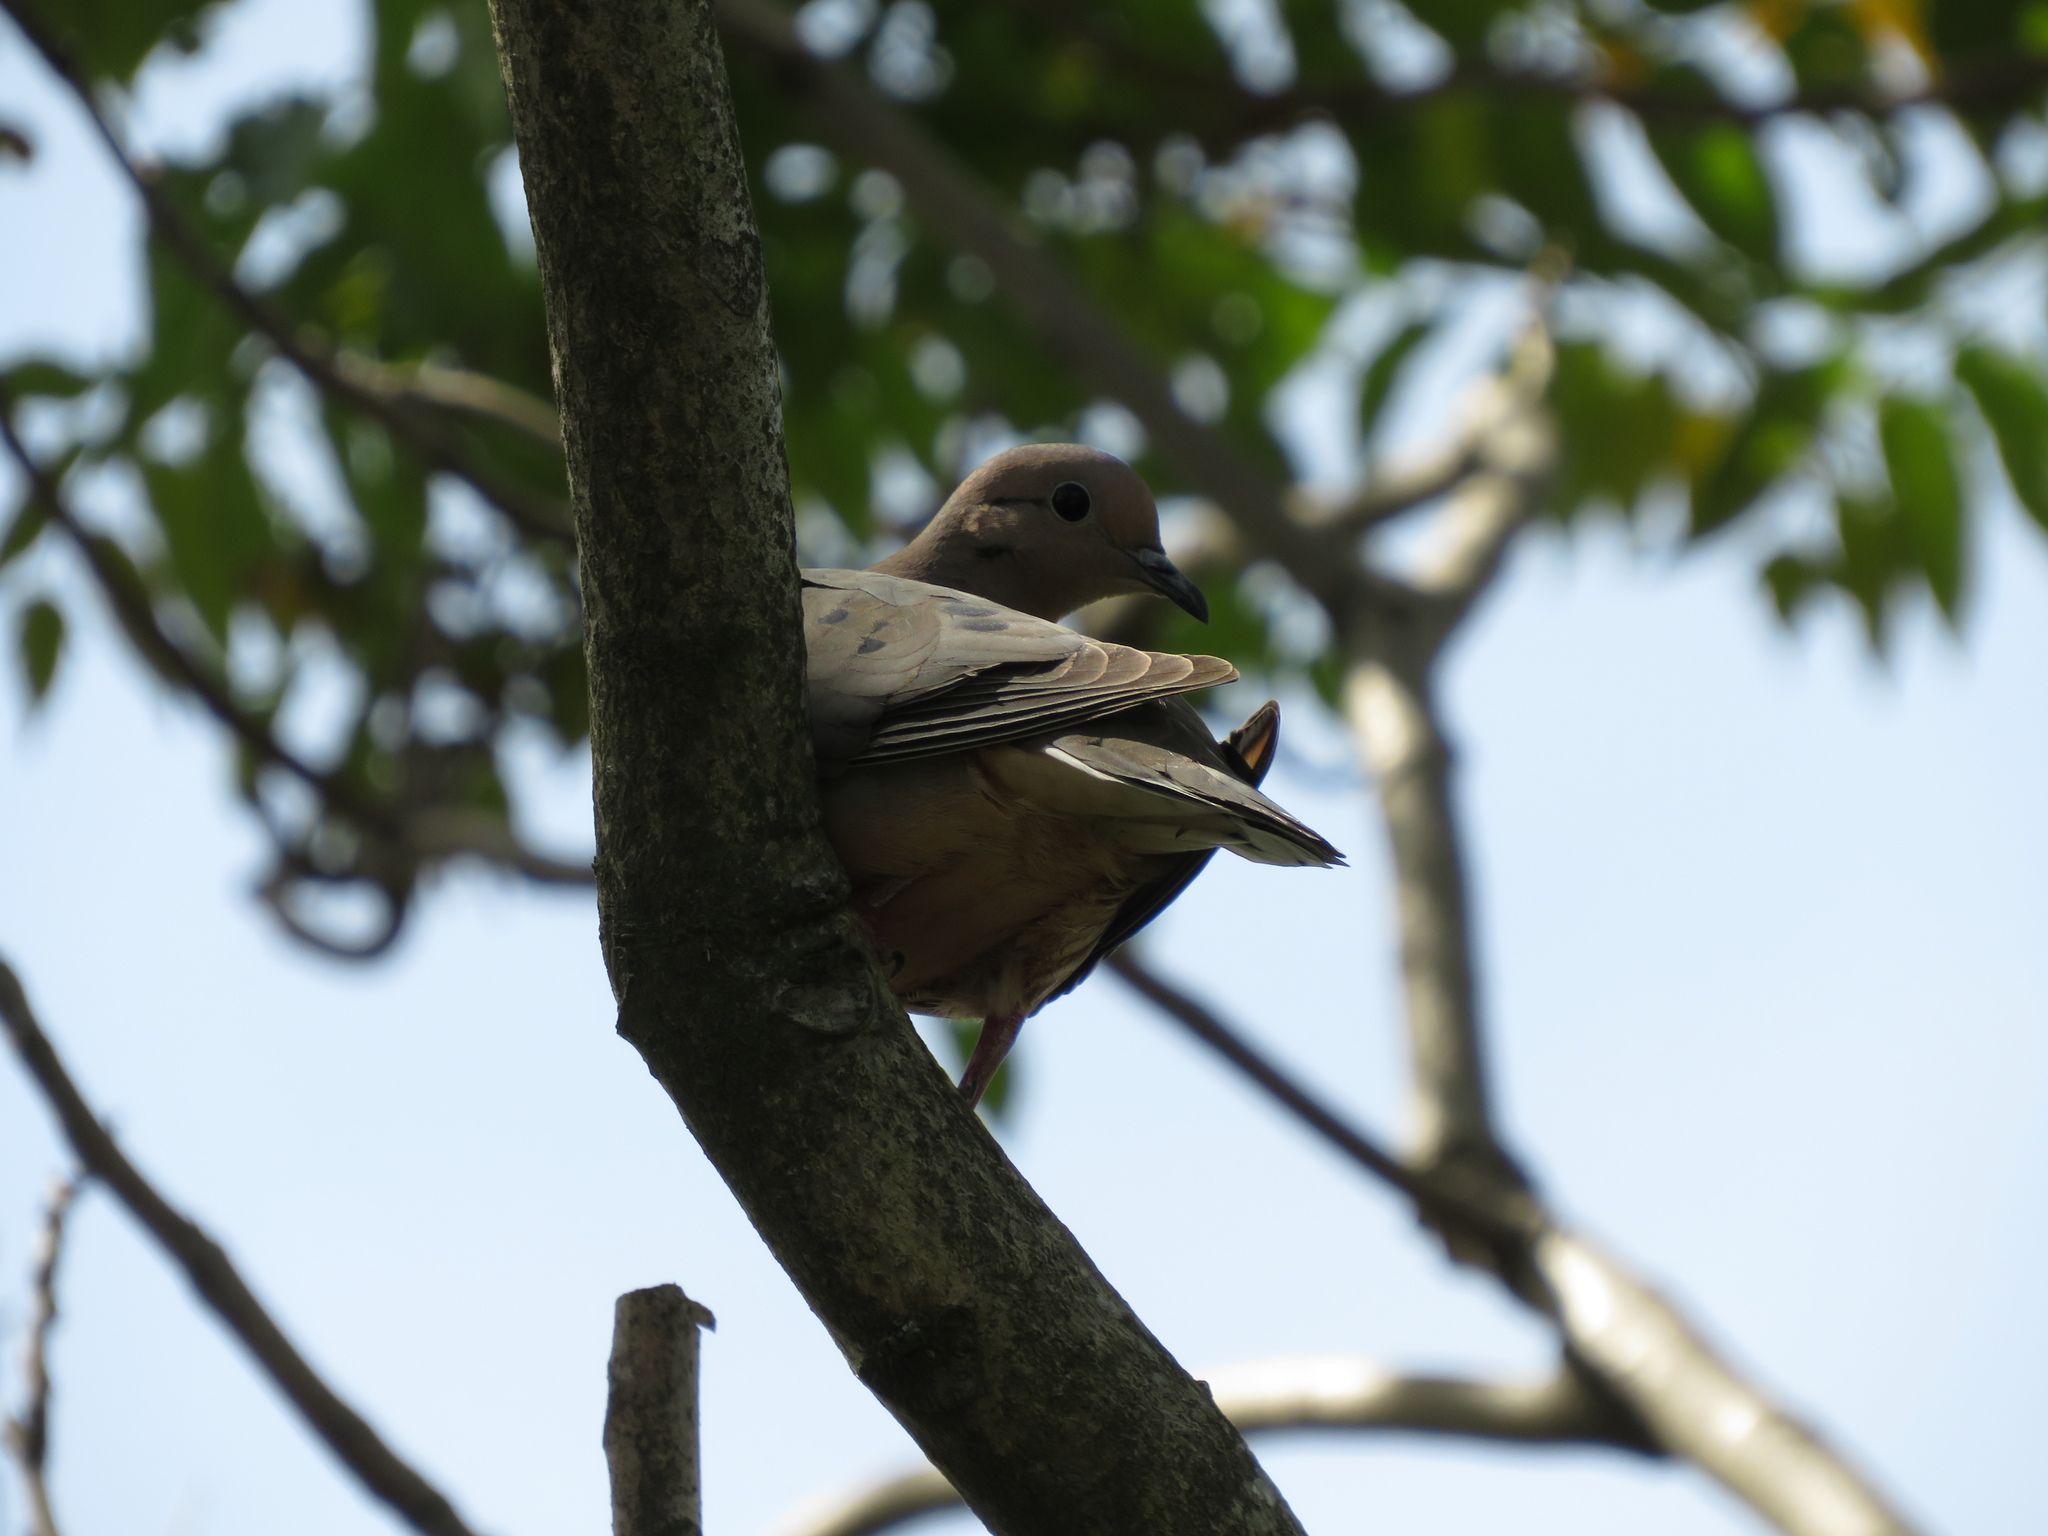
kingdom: Animalia
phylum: Chordata
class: Aves
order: Columbiformes
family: Columbidae
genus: Zenaida
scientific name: Zenaida auriculata
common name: Eared dove
